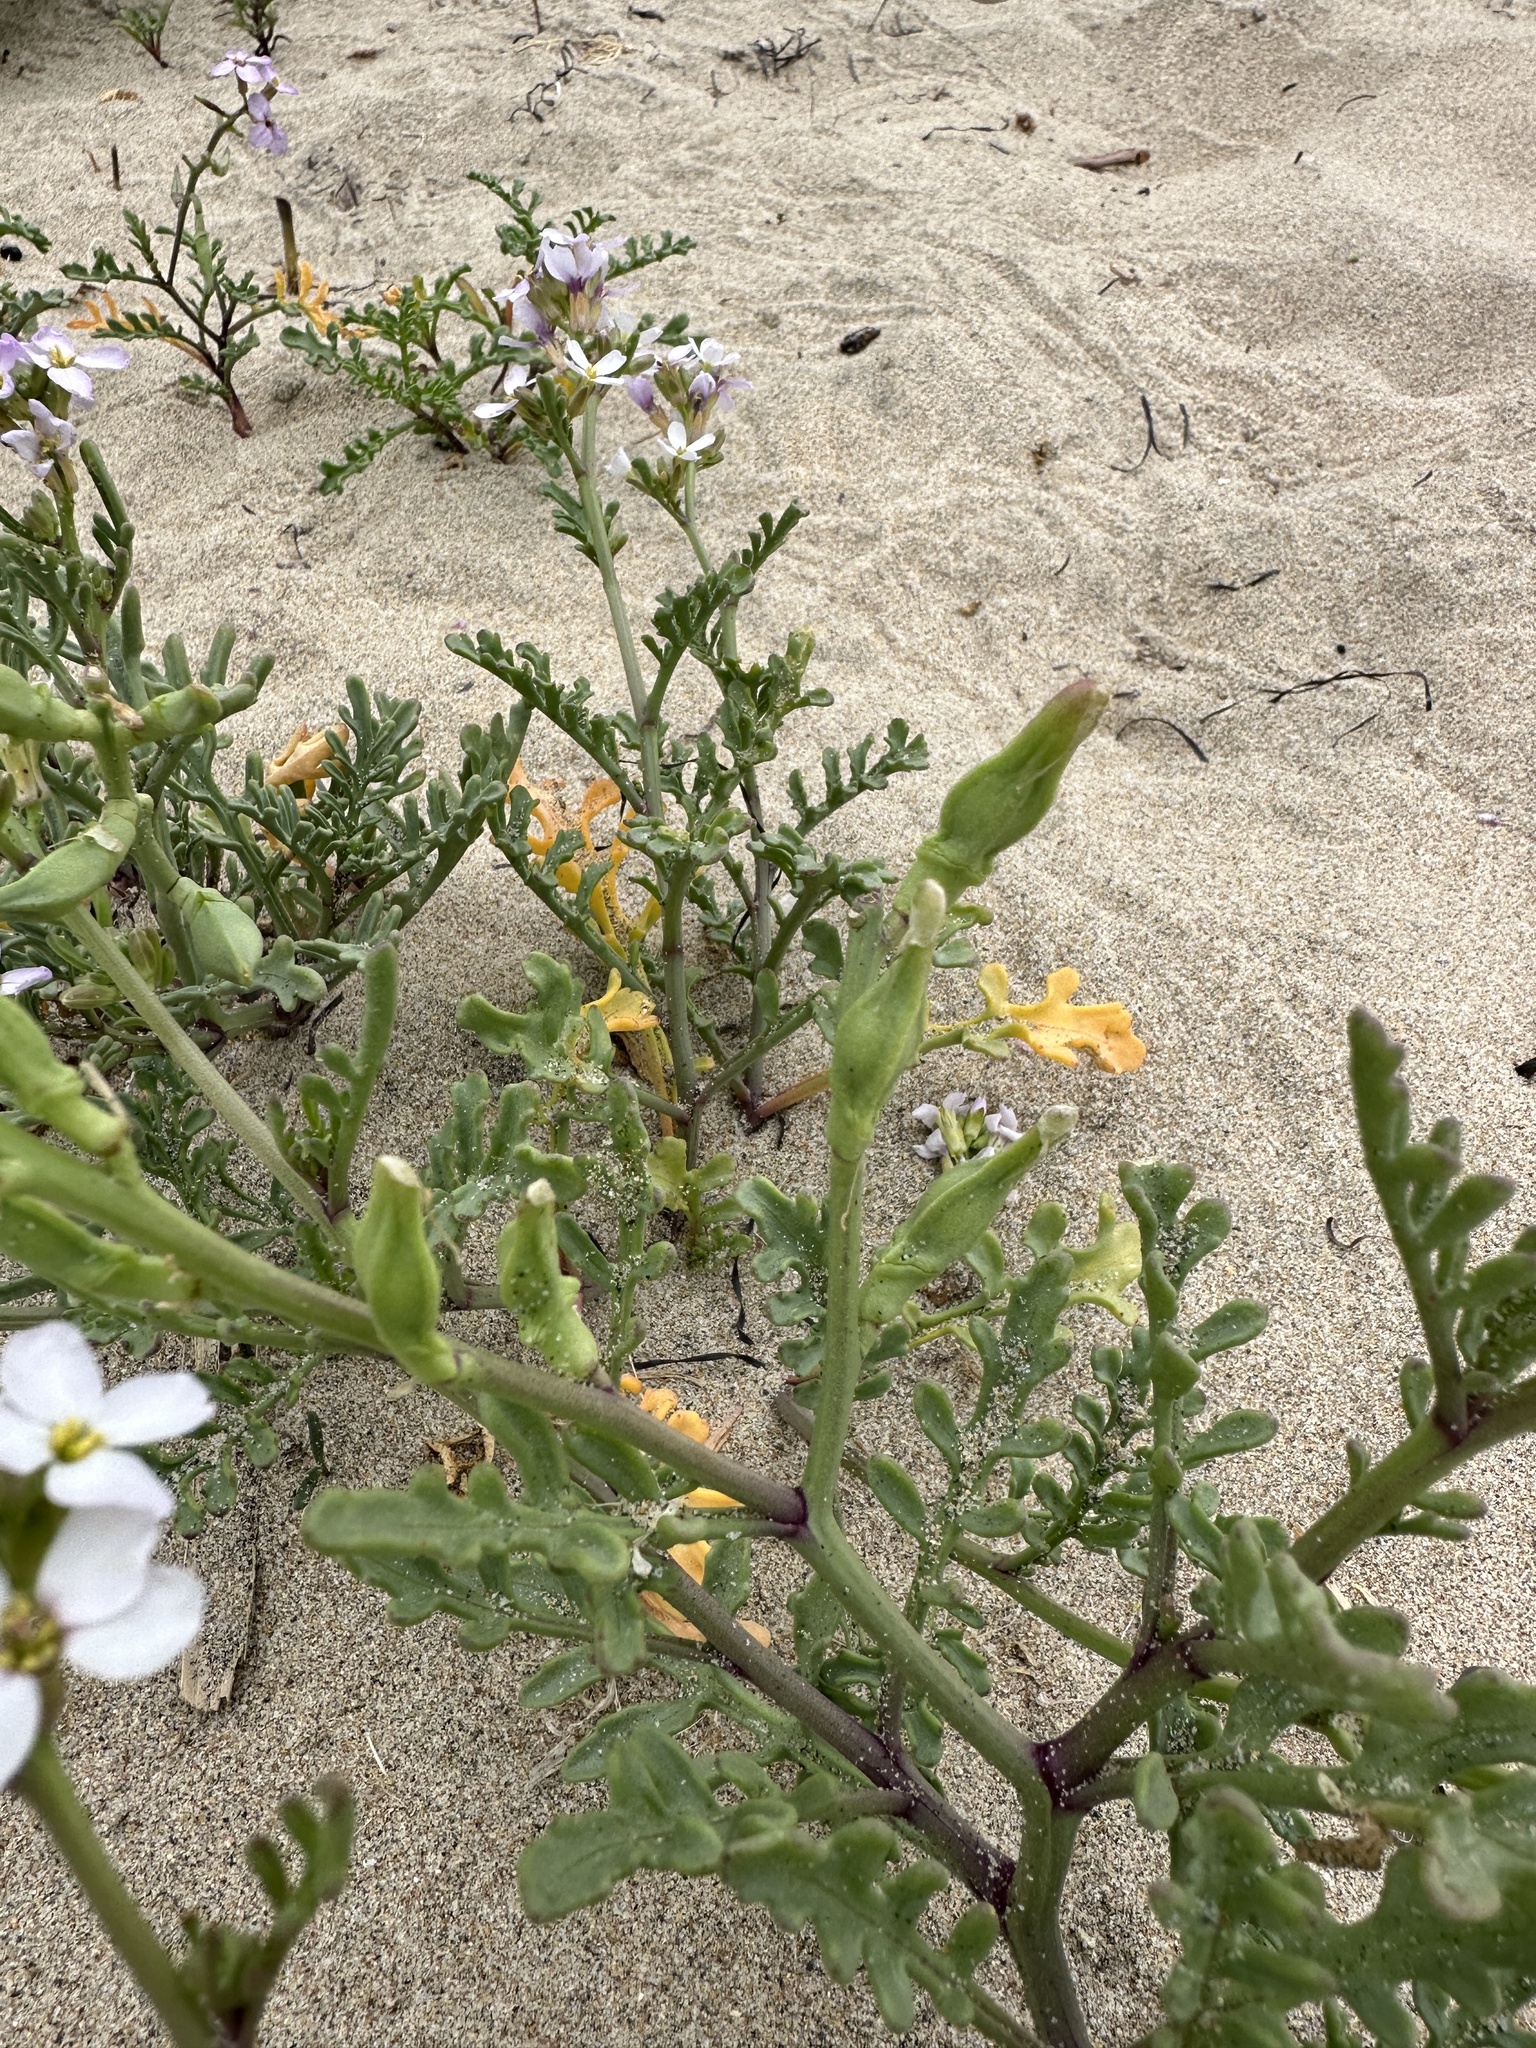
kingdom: Plantae
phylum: Tracheophyta
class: Magnoliopsida
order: Brassicales
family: Brassicaceae
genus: Cakile
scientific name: Cakile maritima
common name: Sea rocket
